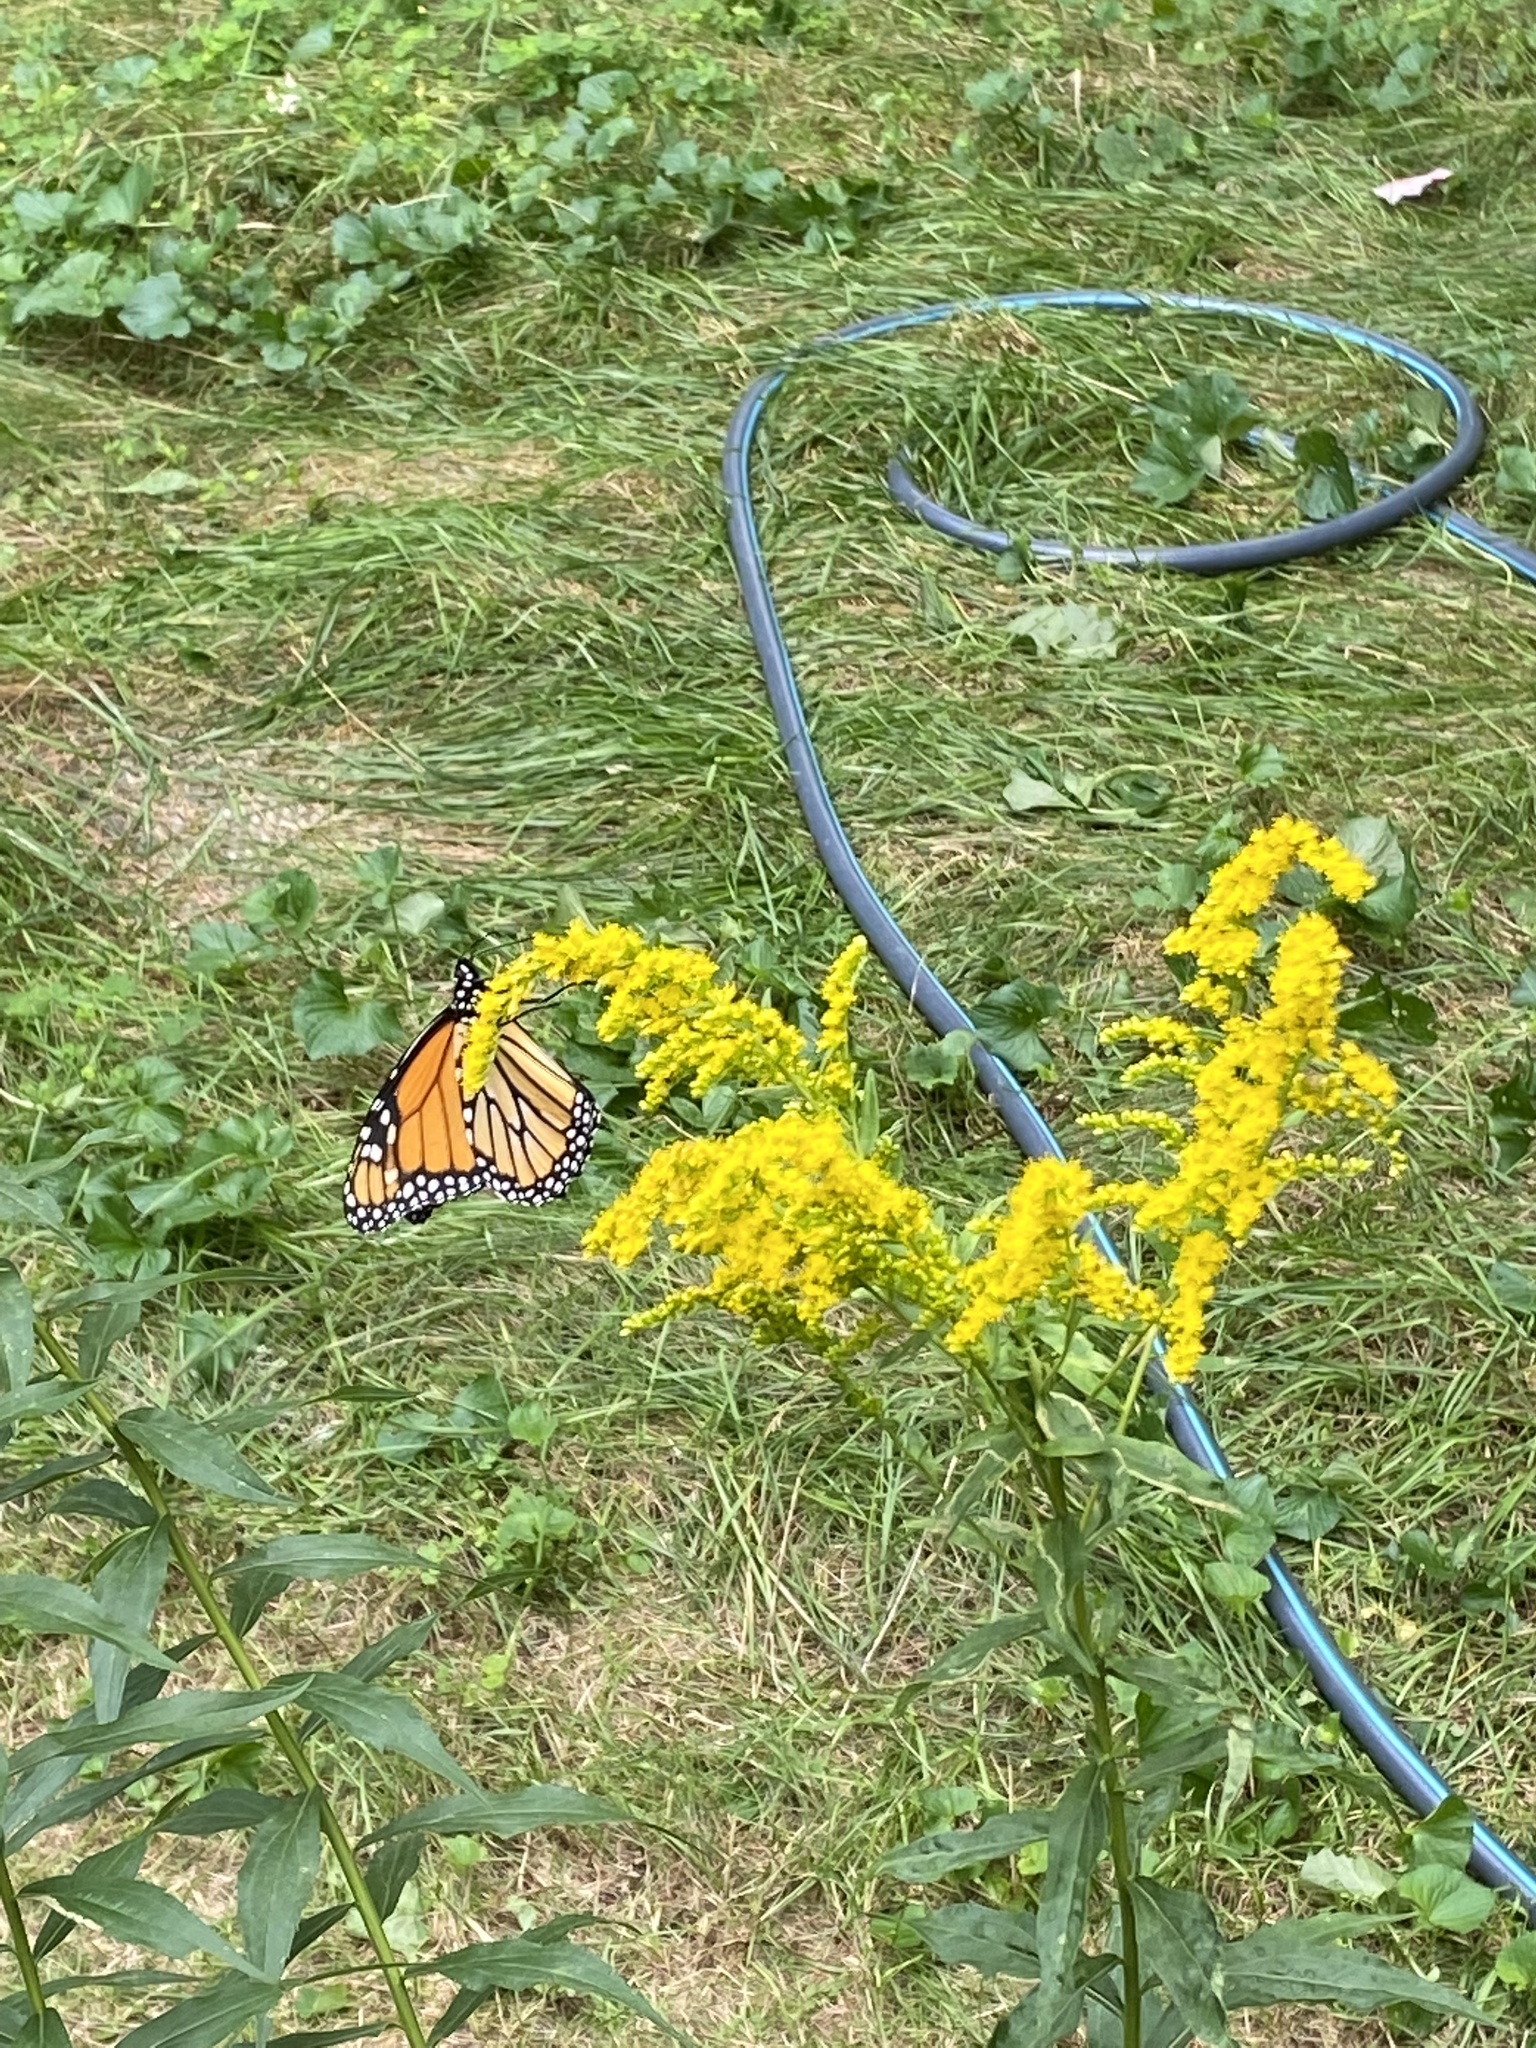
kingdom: Animalia
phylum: Arthropoda
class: Insecta
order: Lepidoptera
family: Nymphalidae
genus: Danaus
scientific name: Danaus plexippus
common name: Monarch
